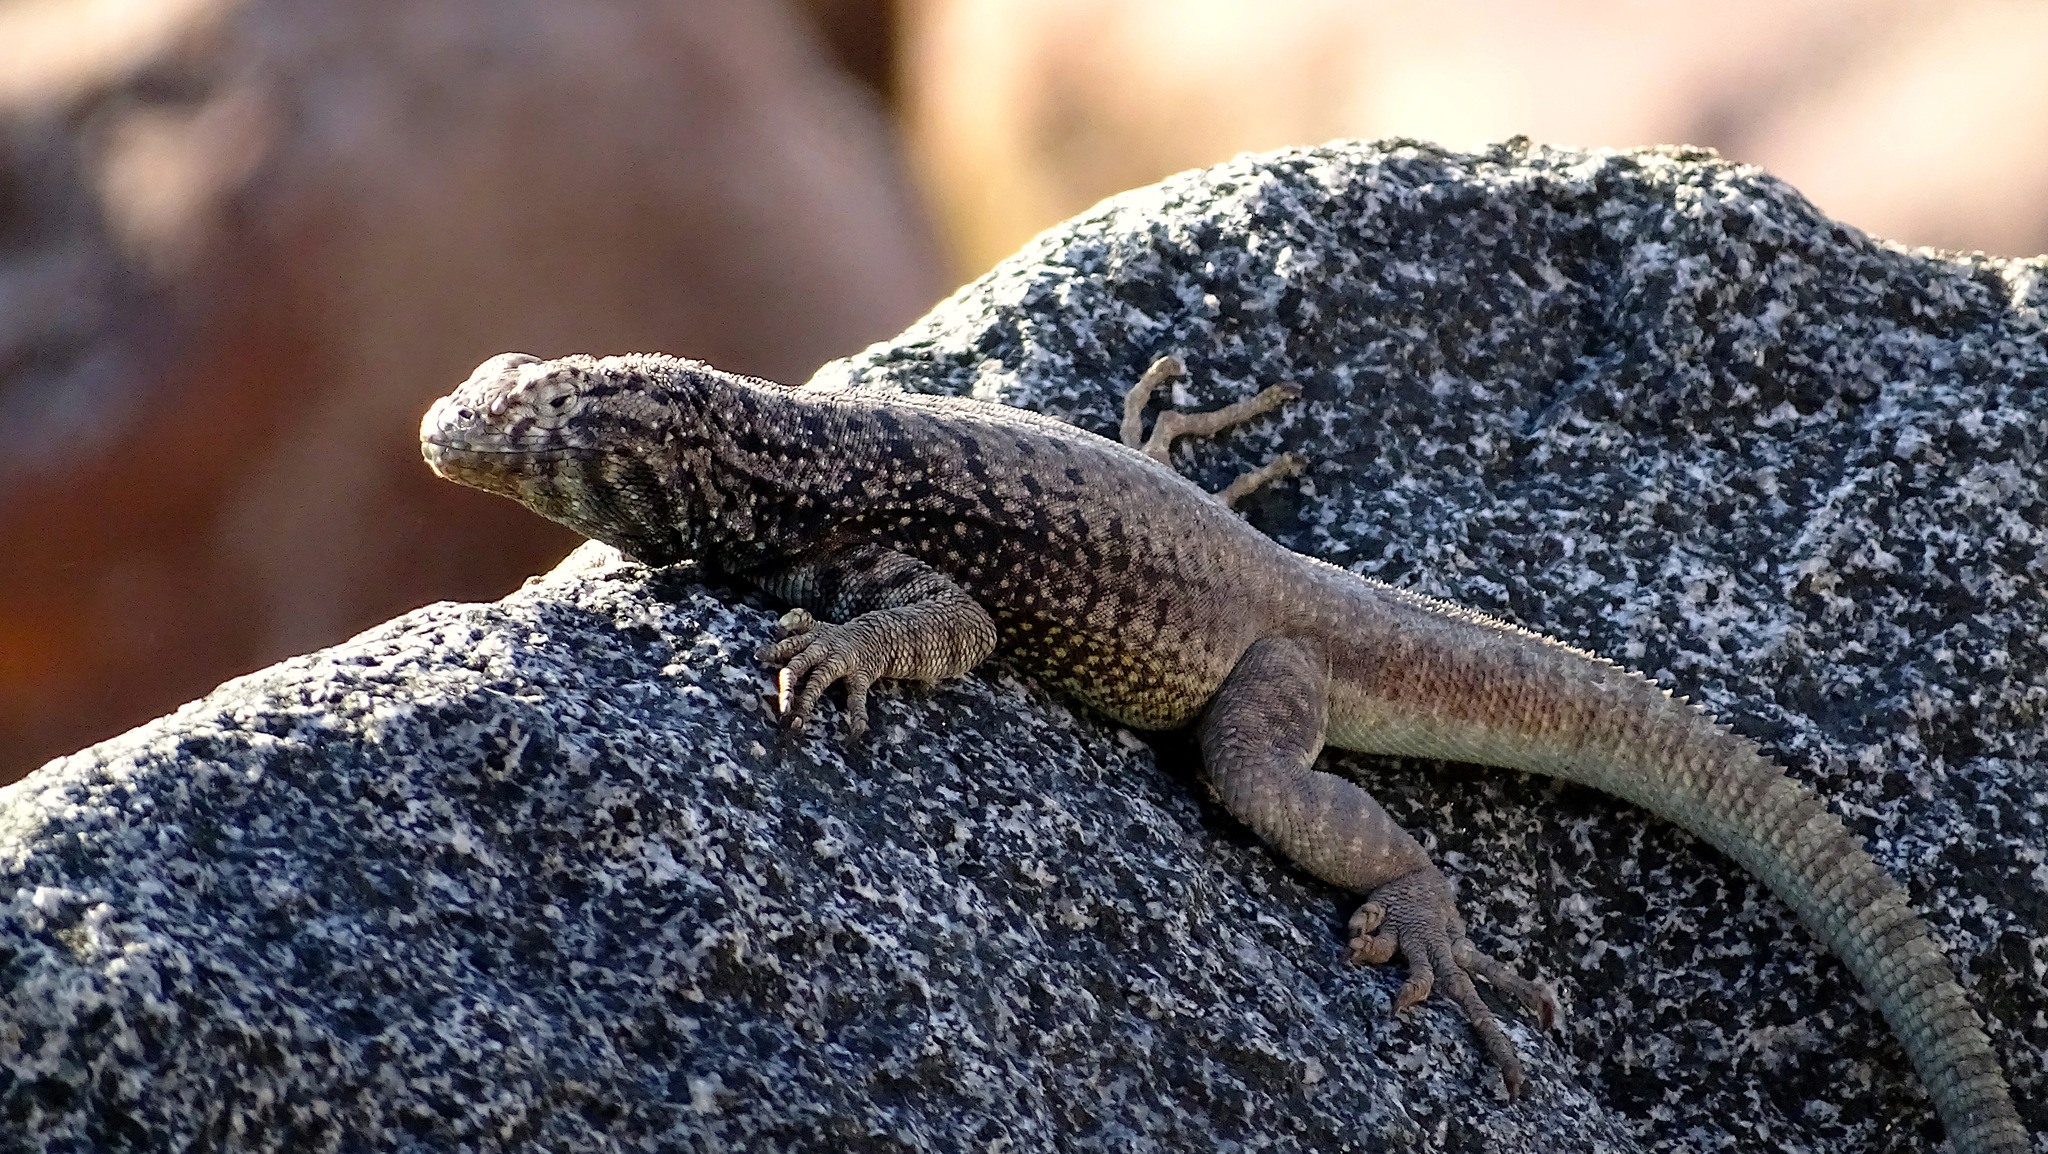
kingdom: Animalia
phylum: Chordata
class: Squamata
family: Tropiduridae
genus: Microlophus
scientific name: Microlophus atacamensis
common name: Atacamen pacific iguana
